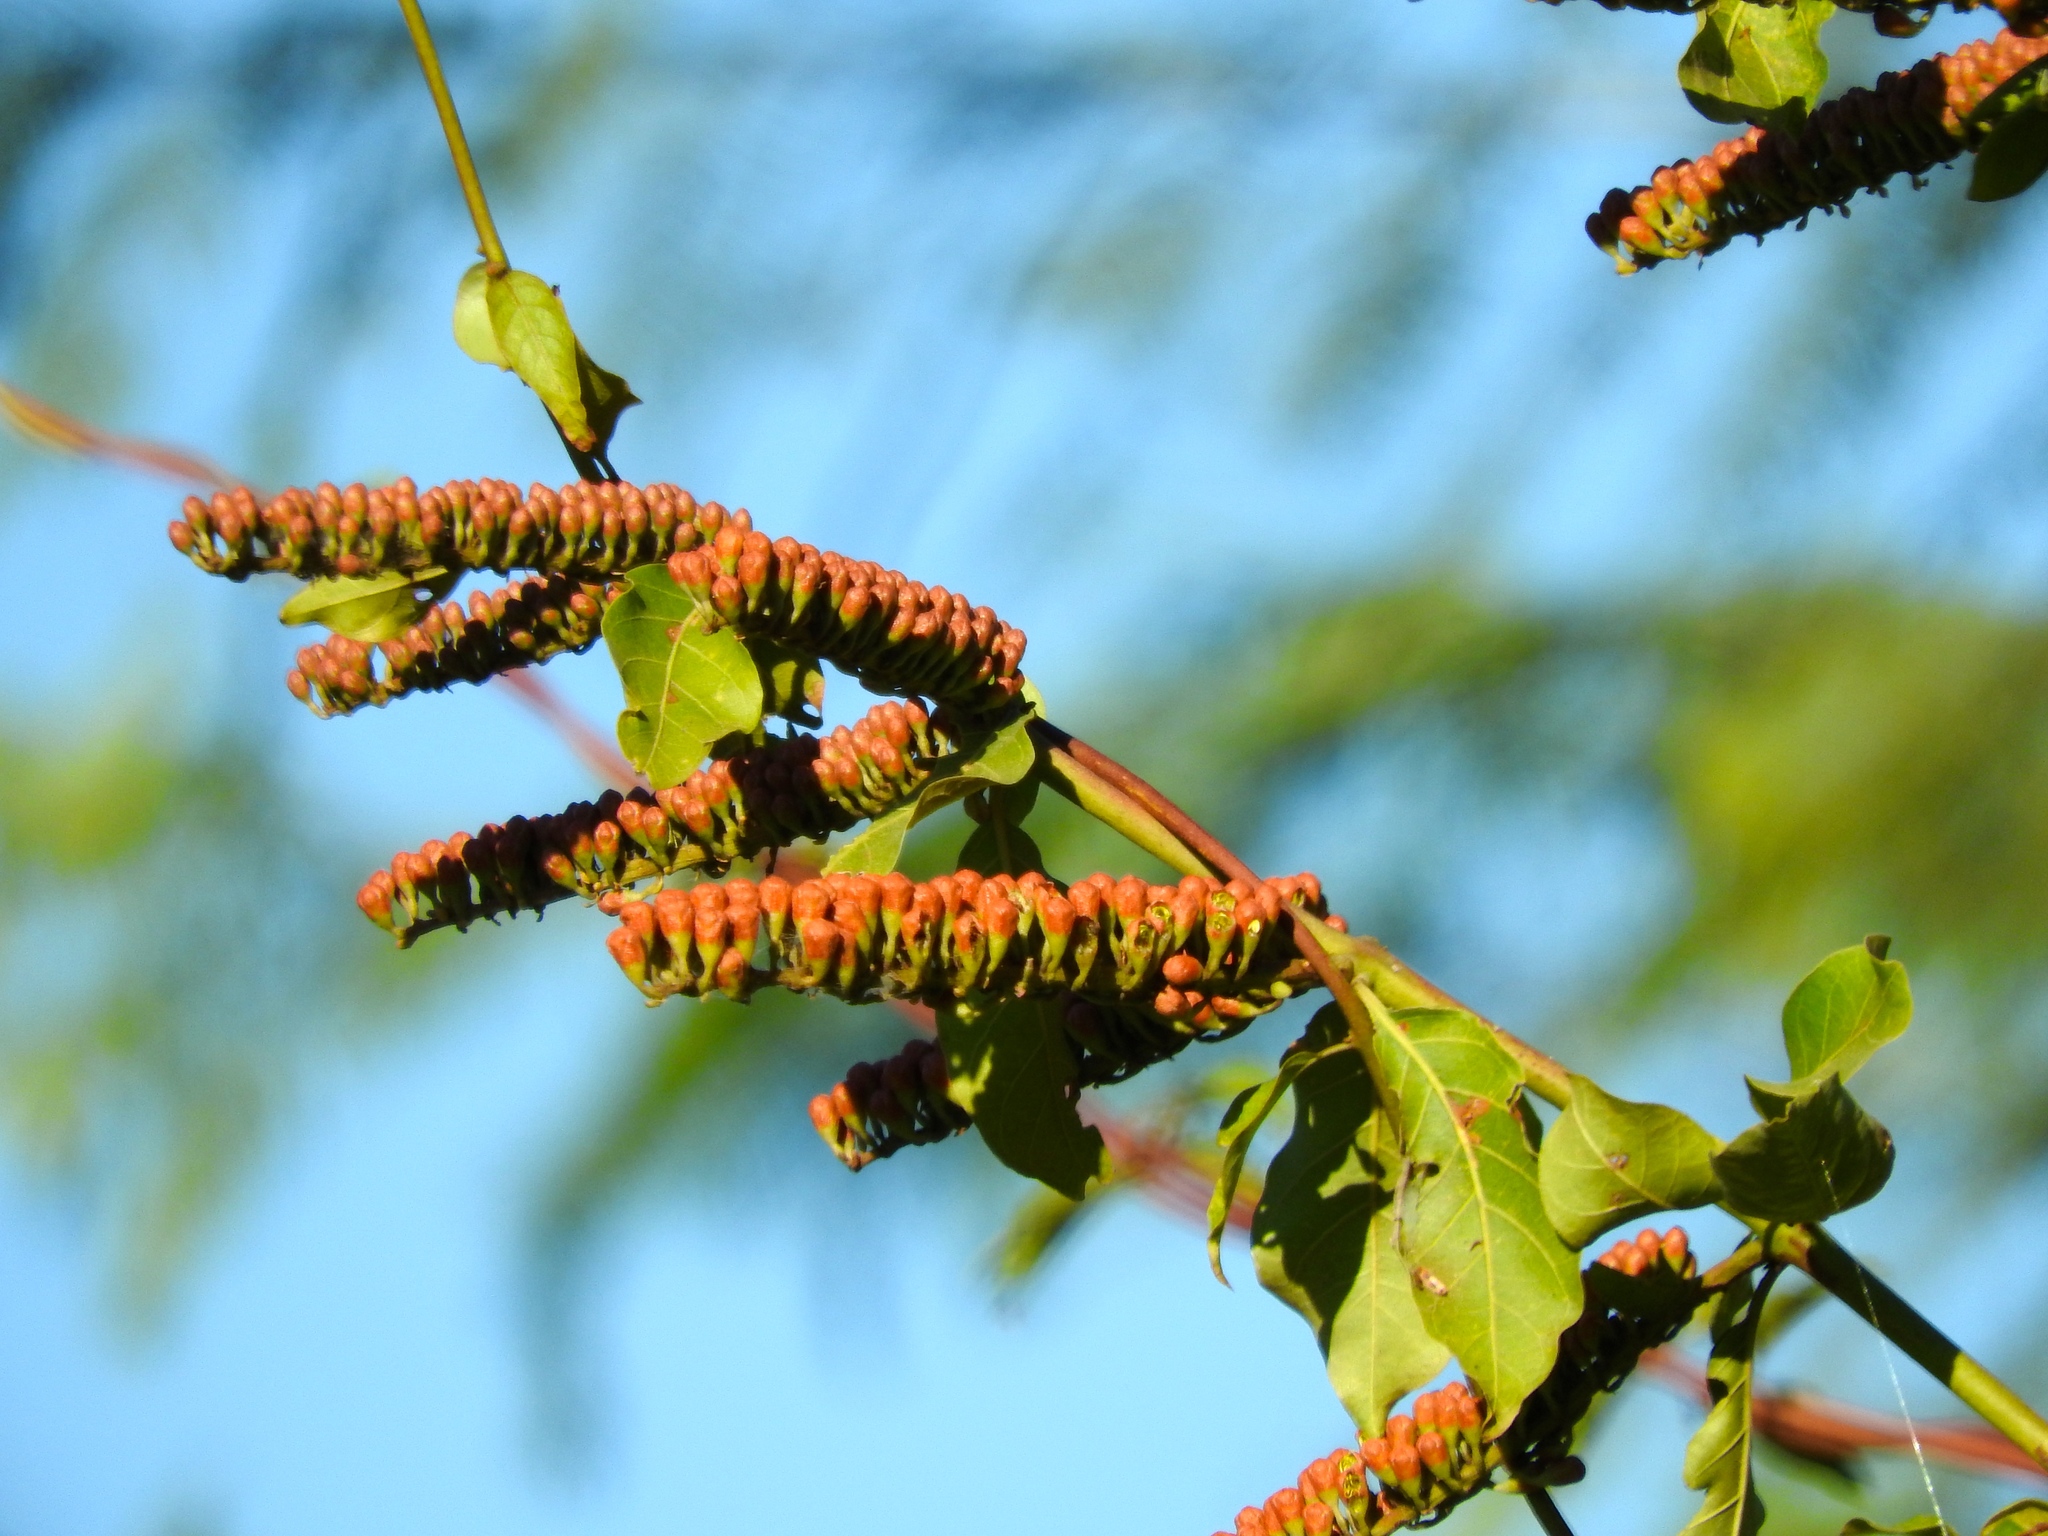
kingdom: Plantae
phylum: Tracheophyta
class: Magnoliopsida
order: Myrtales
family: Combretaceae
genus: Combretum
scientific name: Combretum farinosum
